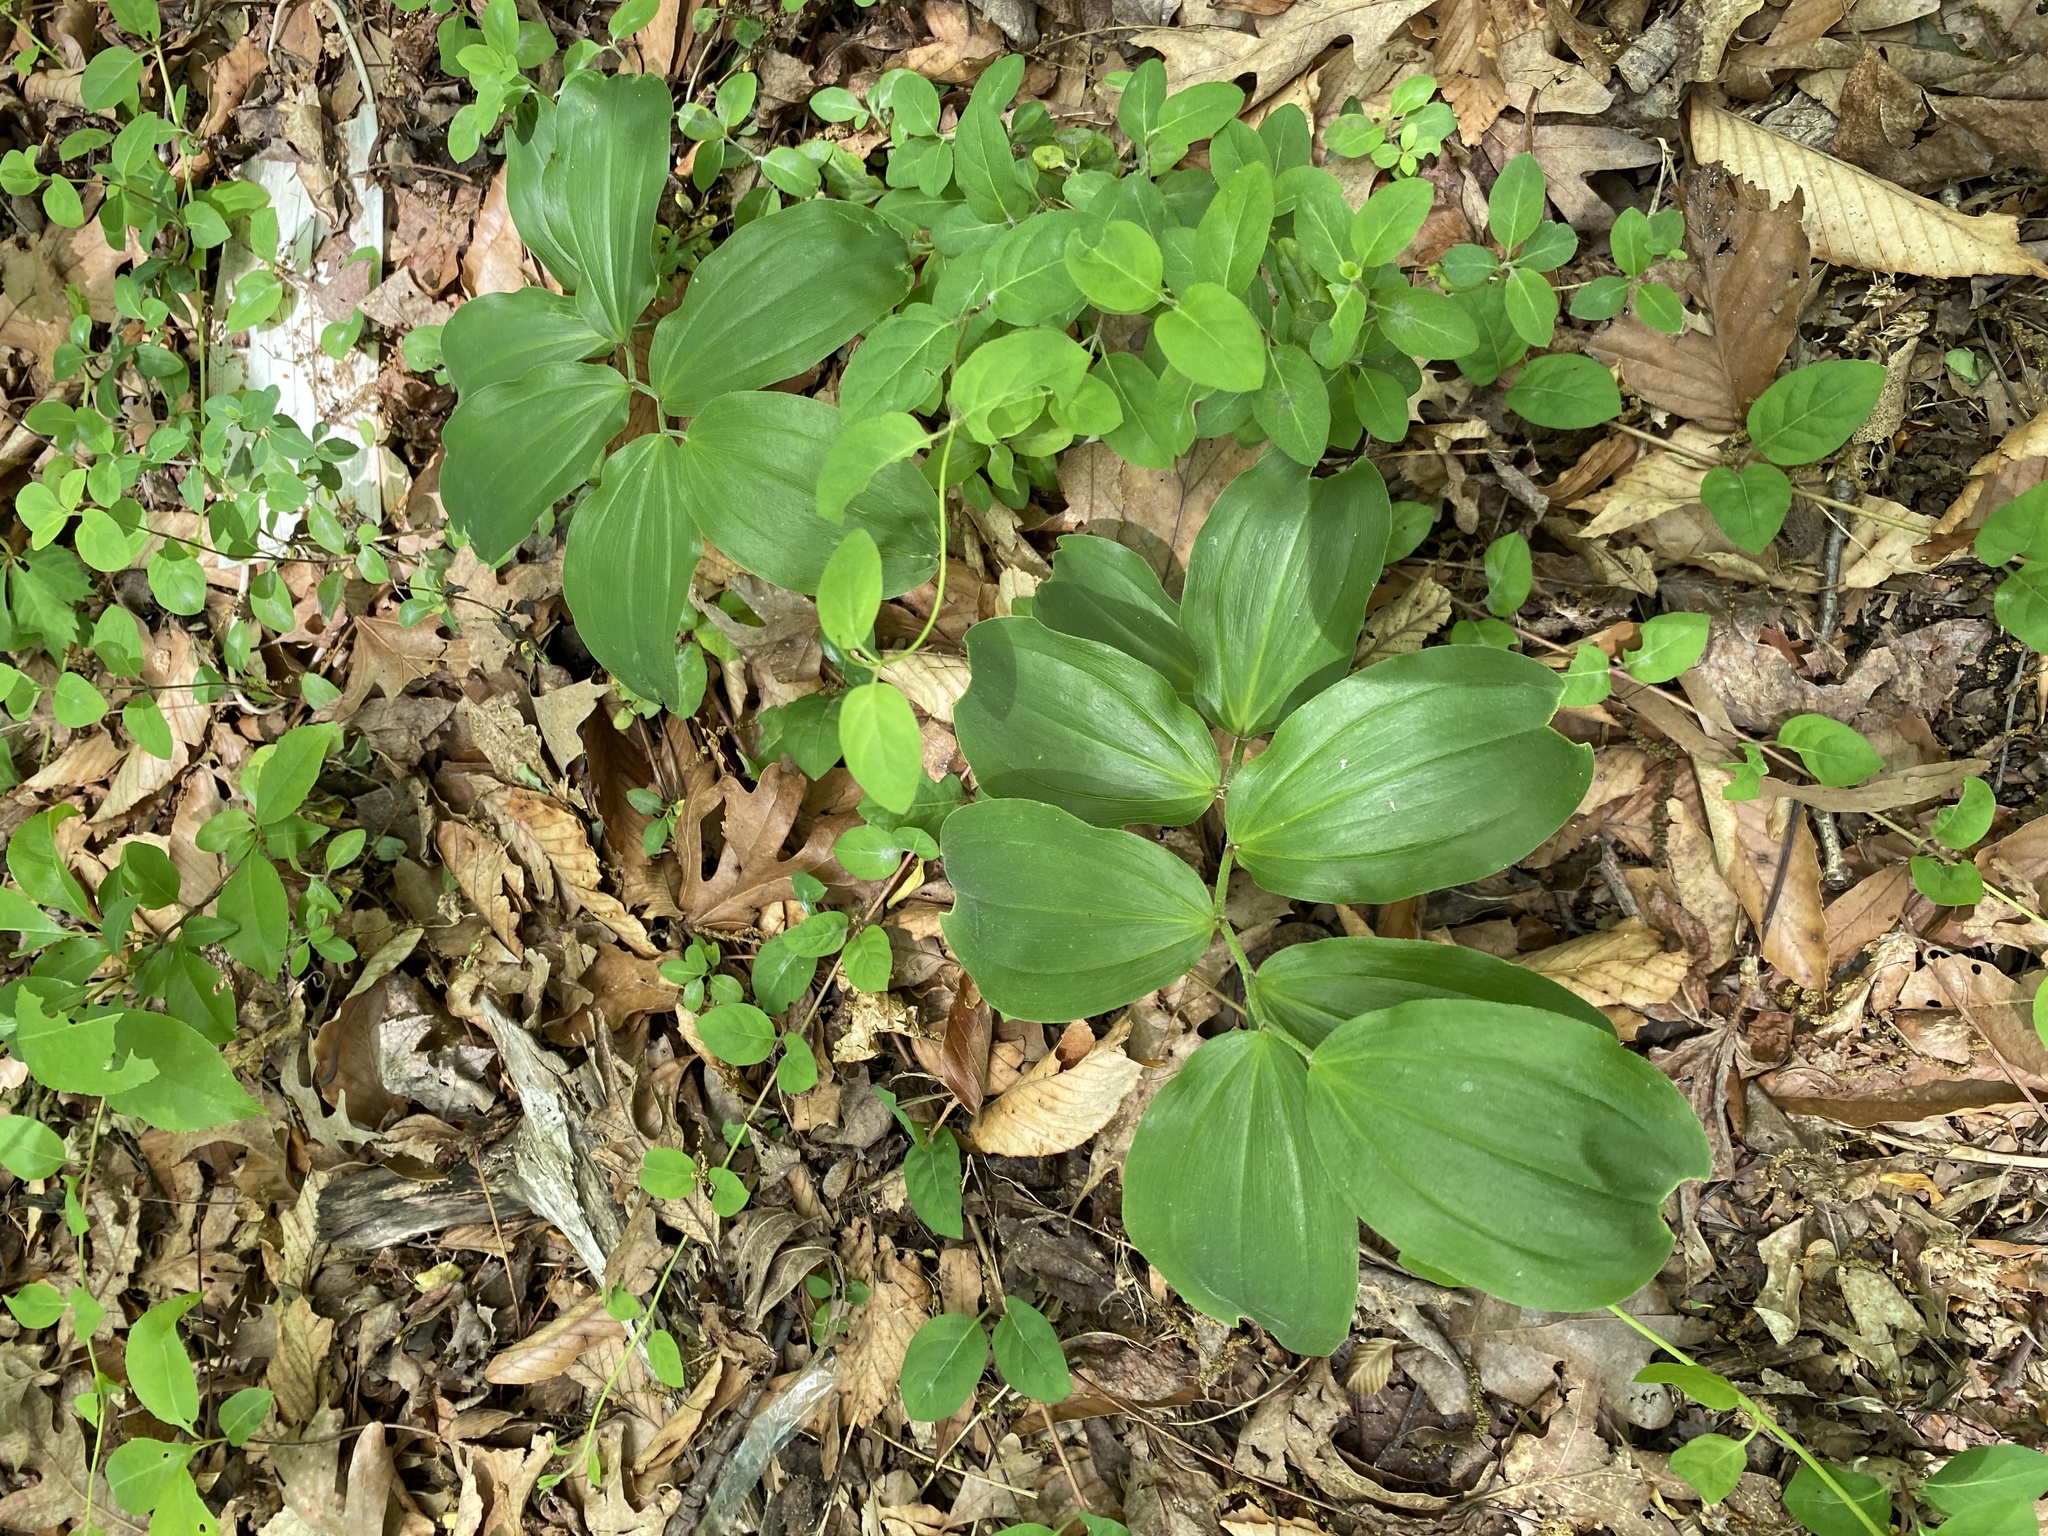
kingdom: Plantae
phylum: Tracheophyta
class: Liliopsida
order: Asparagales
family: Asparagaceae
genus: Maianthemum
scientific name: Maianthemum racemosum
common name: False spikenard
